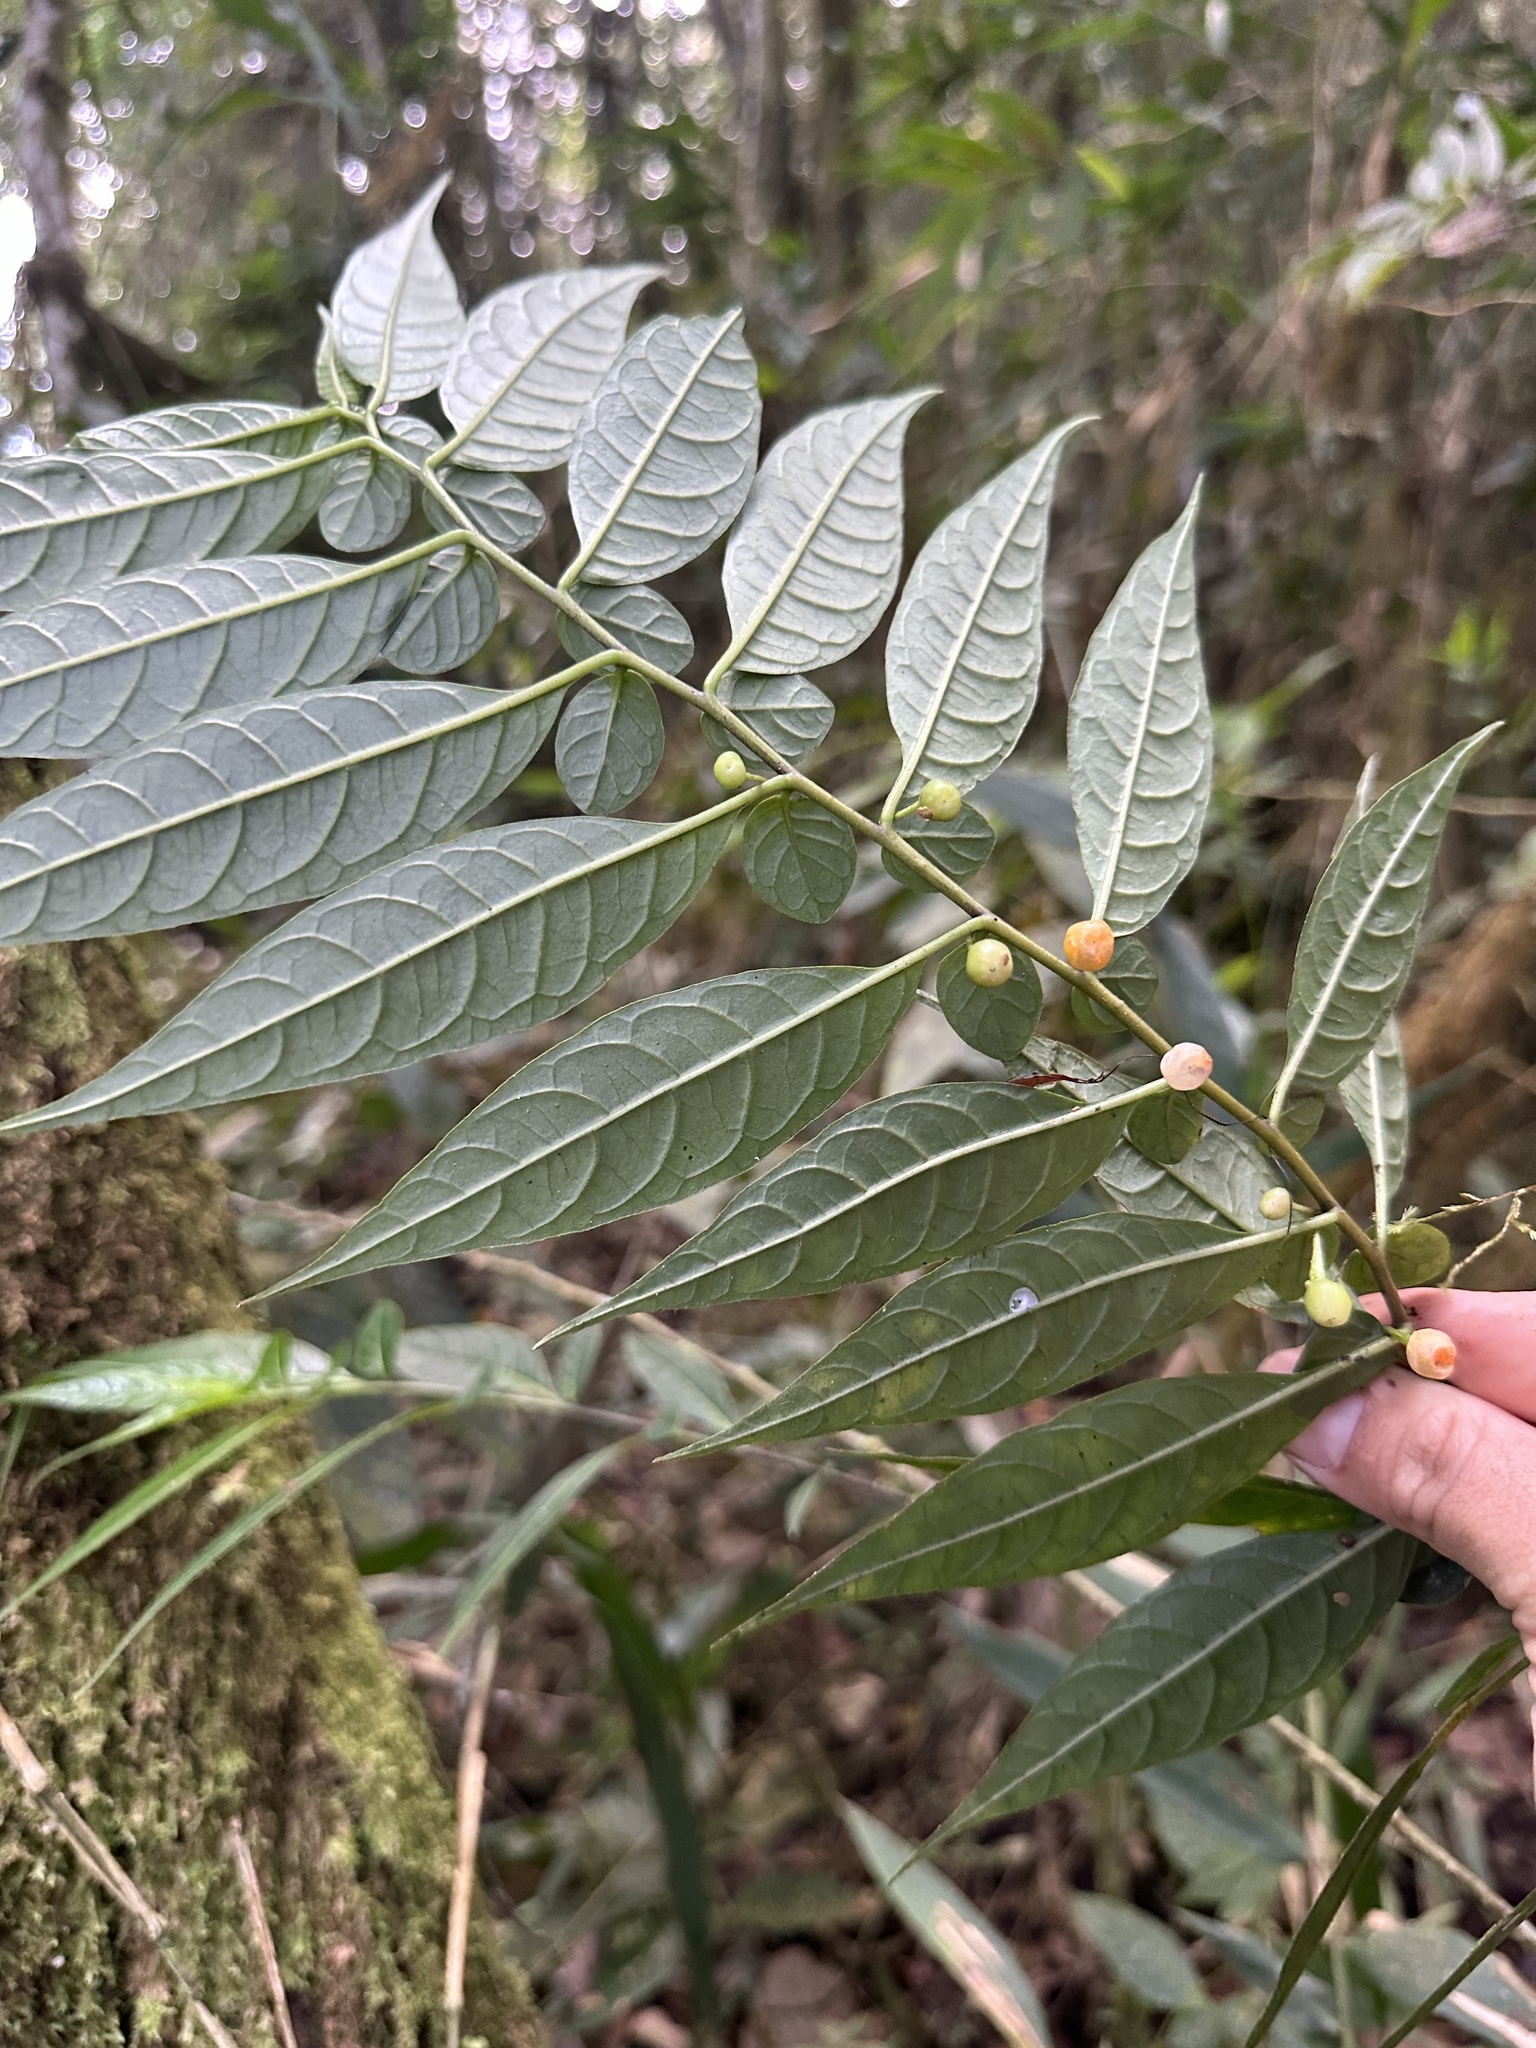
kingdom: Plantae
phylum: Tracheophyta
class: Magnoliopsida
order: Solanales
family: Solanaceae
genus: Capsicum
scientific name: Capsicum dimorphum
